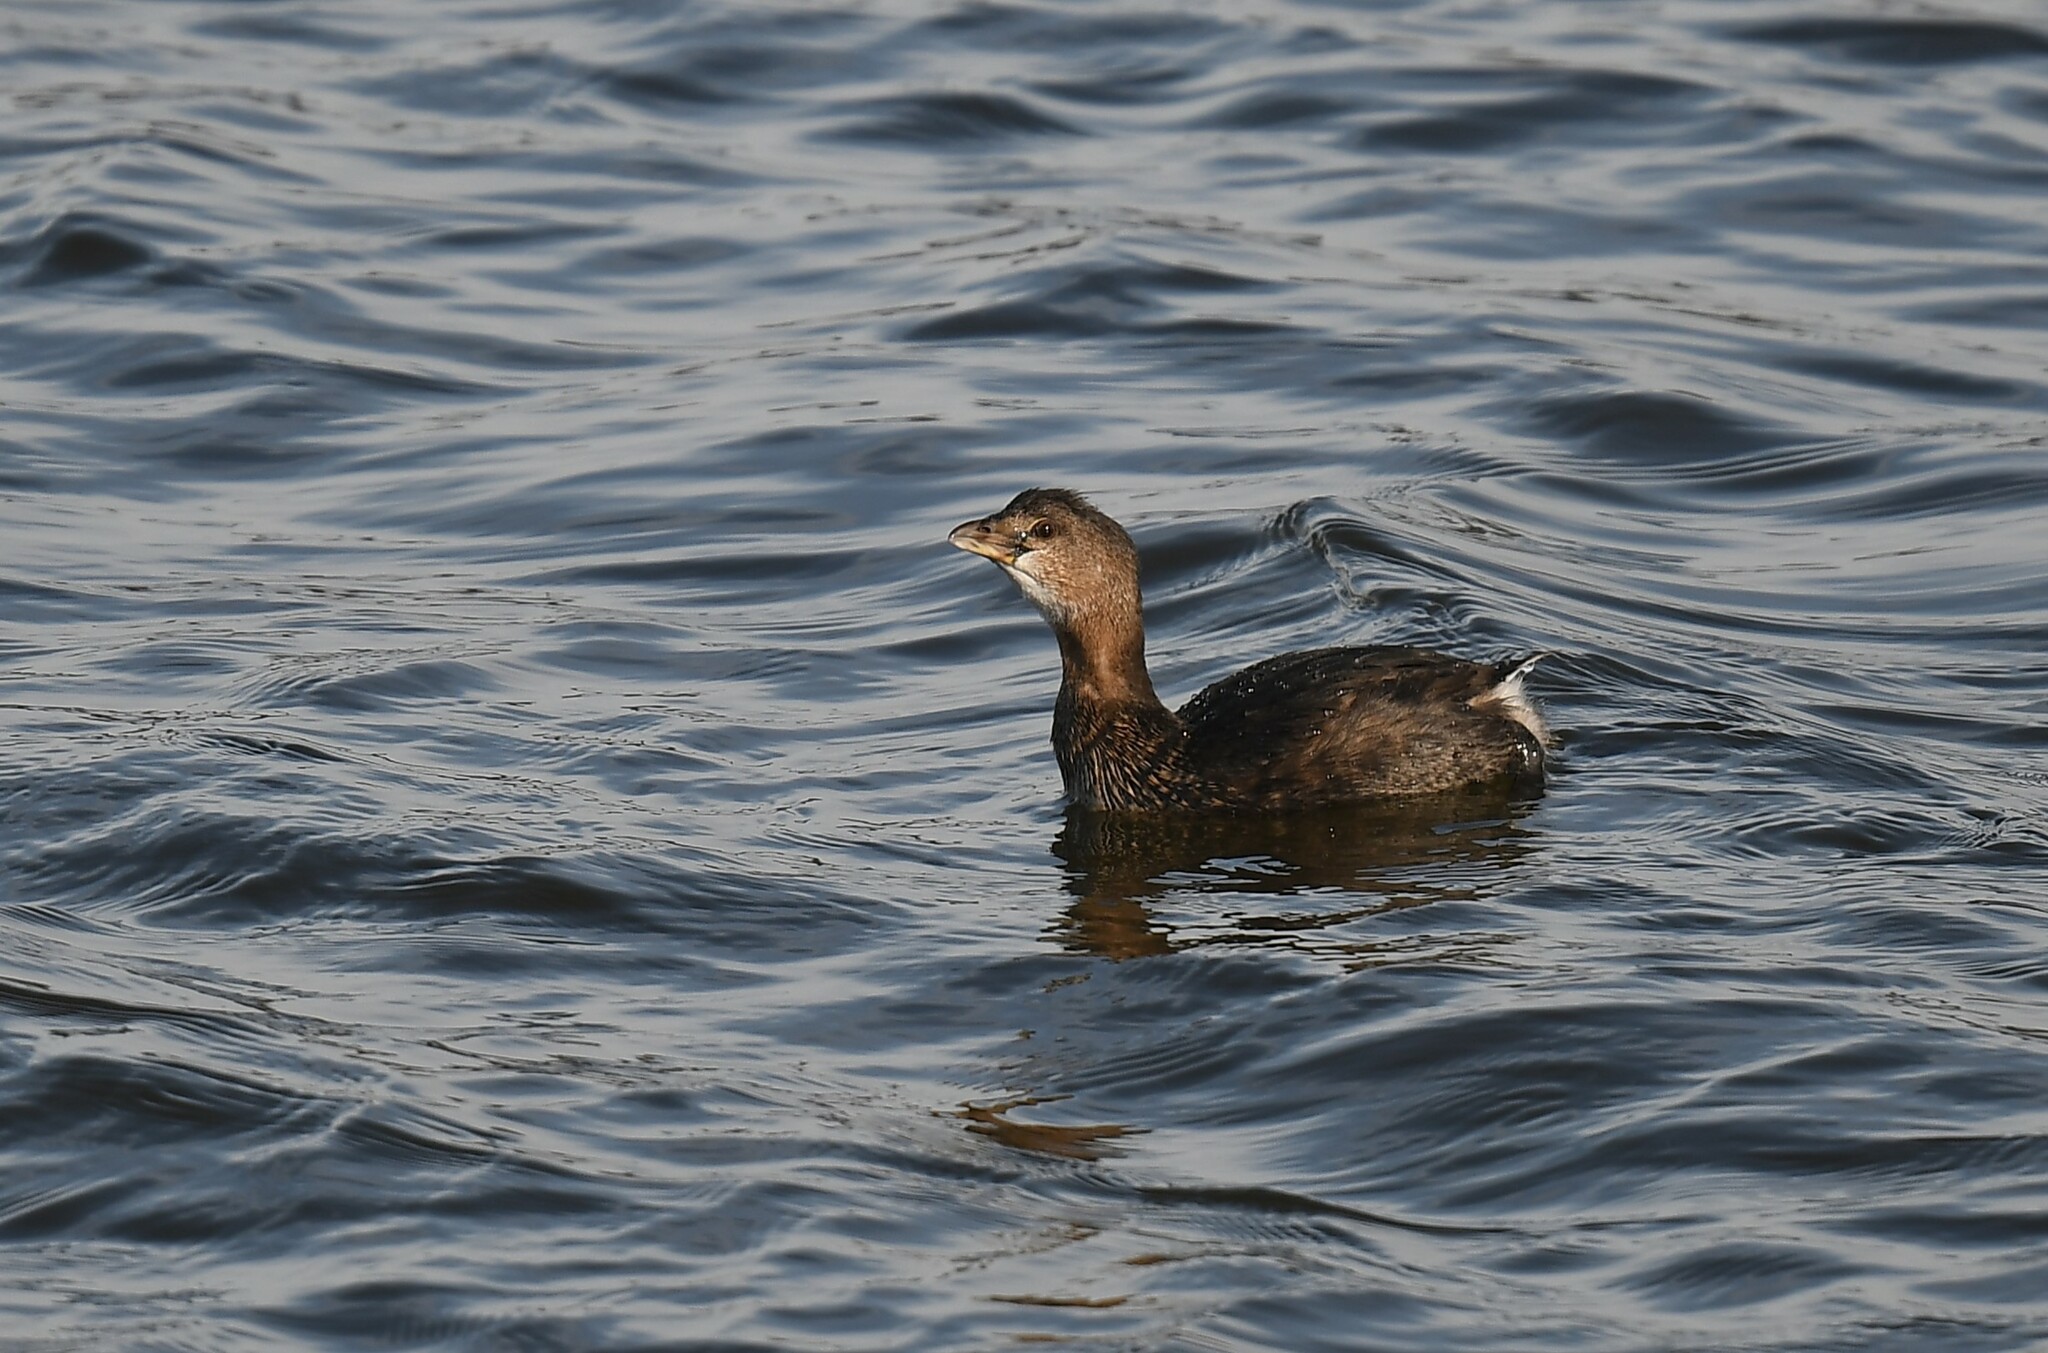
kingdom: Animalia
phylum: Chordata
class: Aves
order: Podicipediformes
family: Podicipedidae
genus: Podilymbus
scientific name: Podilymbus podiceps
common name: Pied-billed grebe
